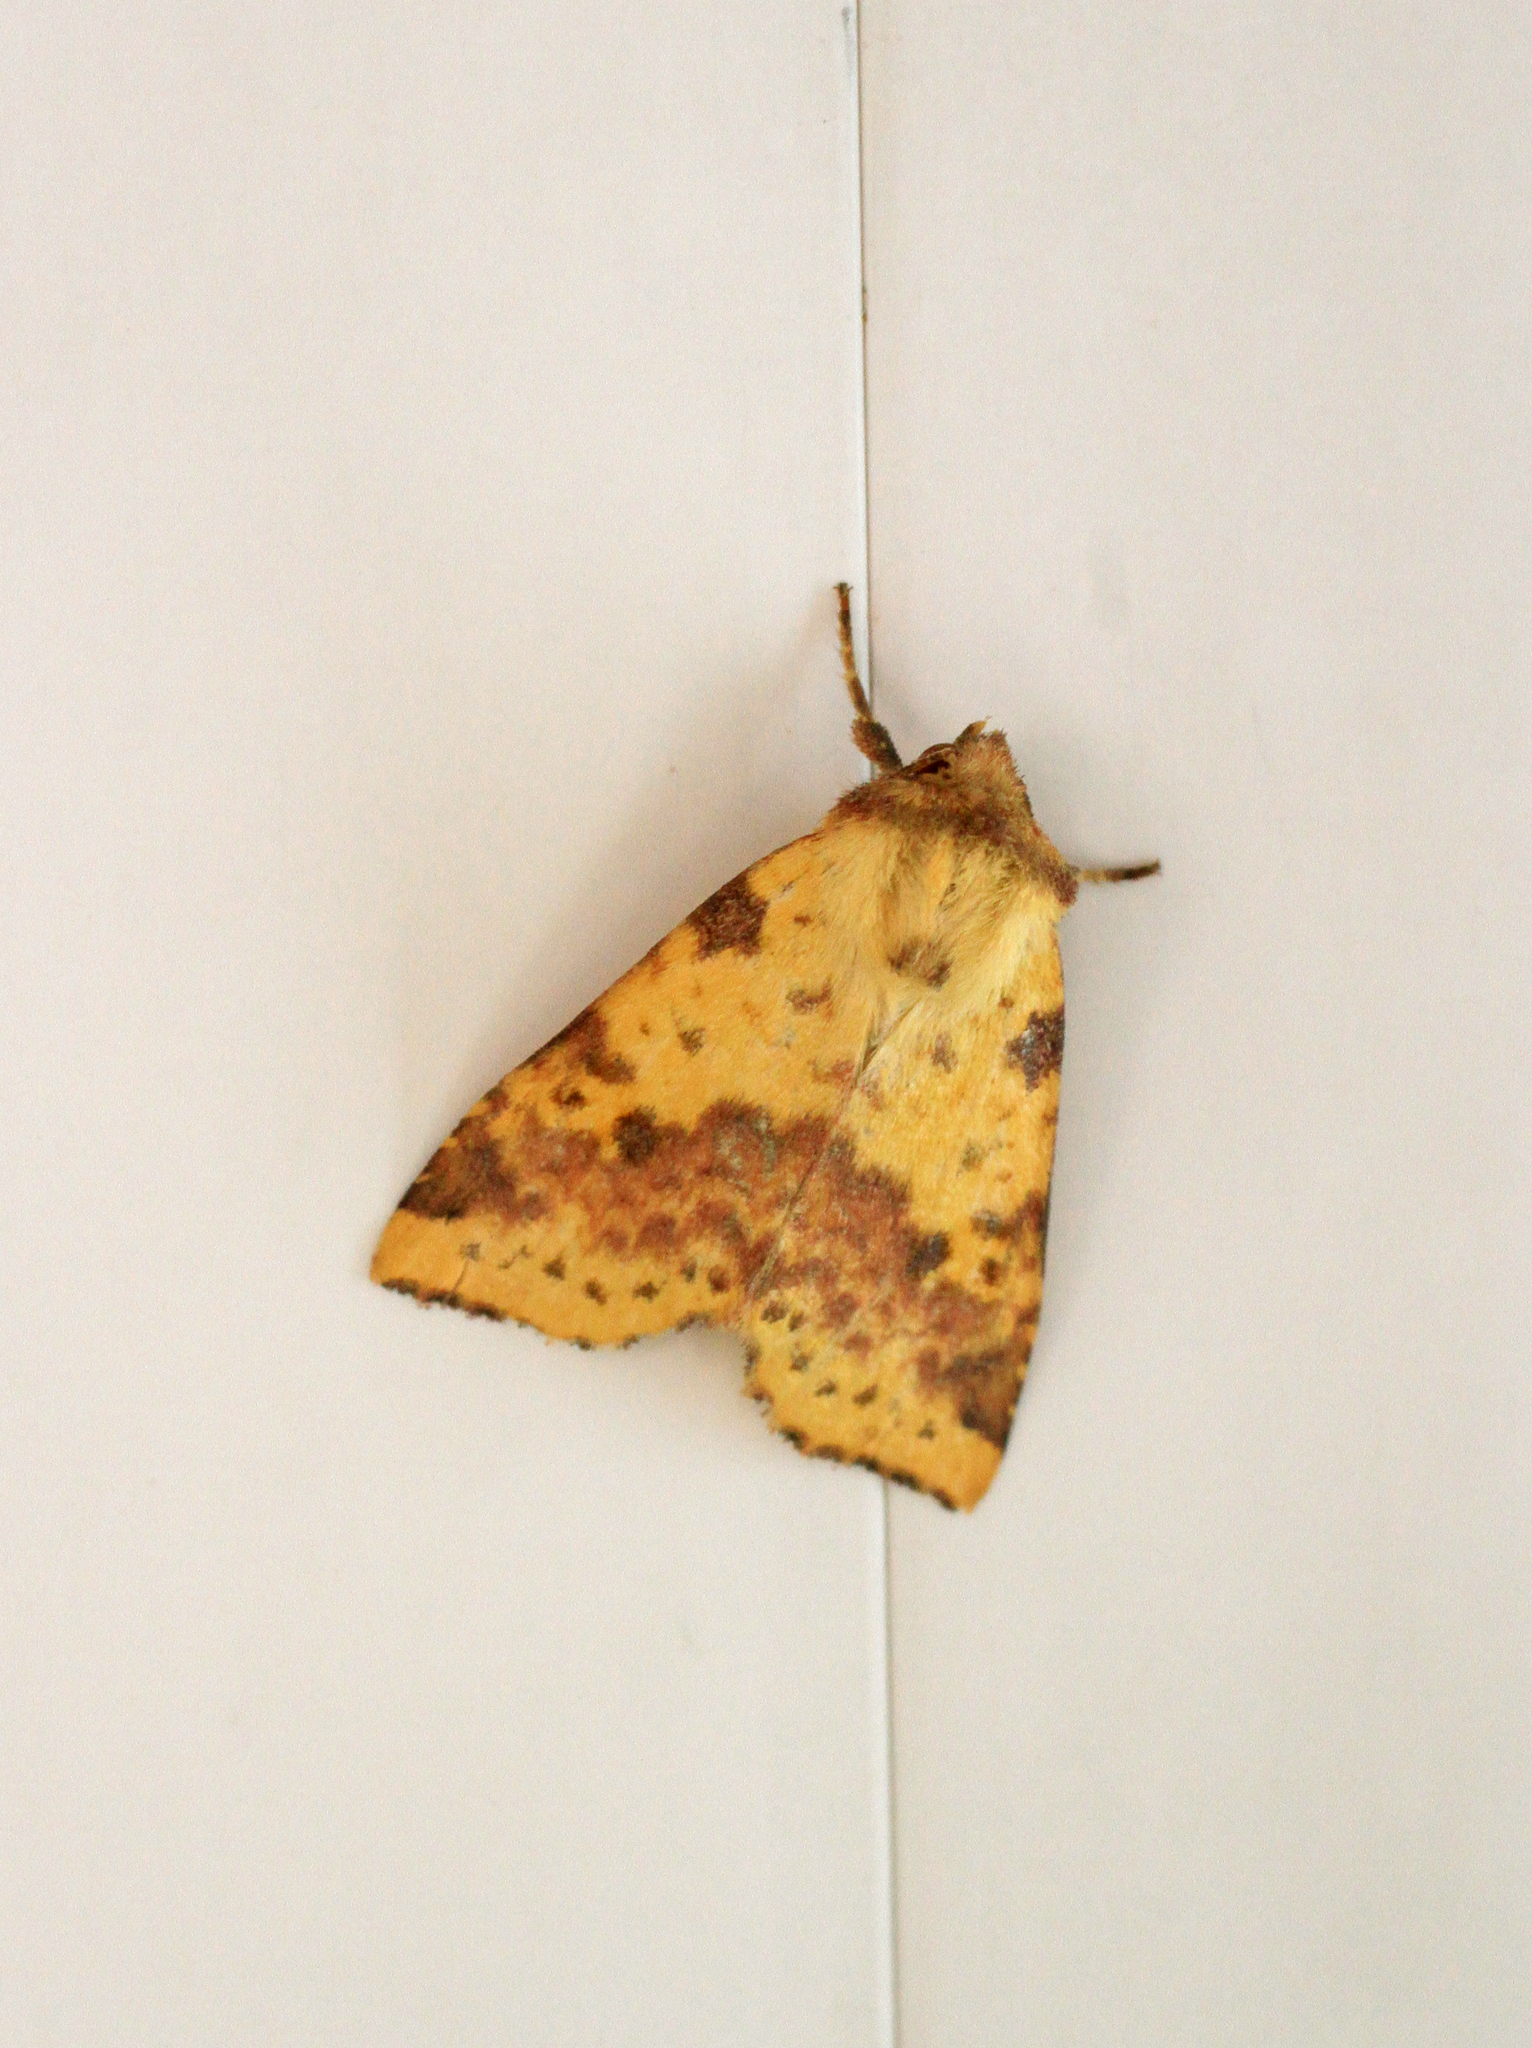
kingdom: Animalia
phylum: Arthropoda
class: Insecta
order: Lepidoptera
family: Noctuidae
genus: Xanthia
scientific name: Xanthia togata
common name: Pink-barred sallow
